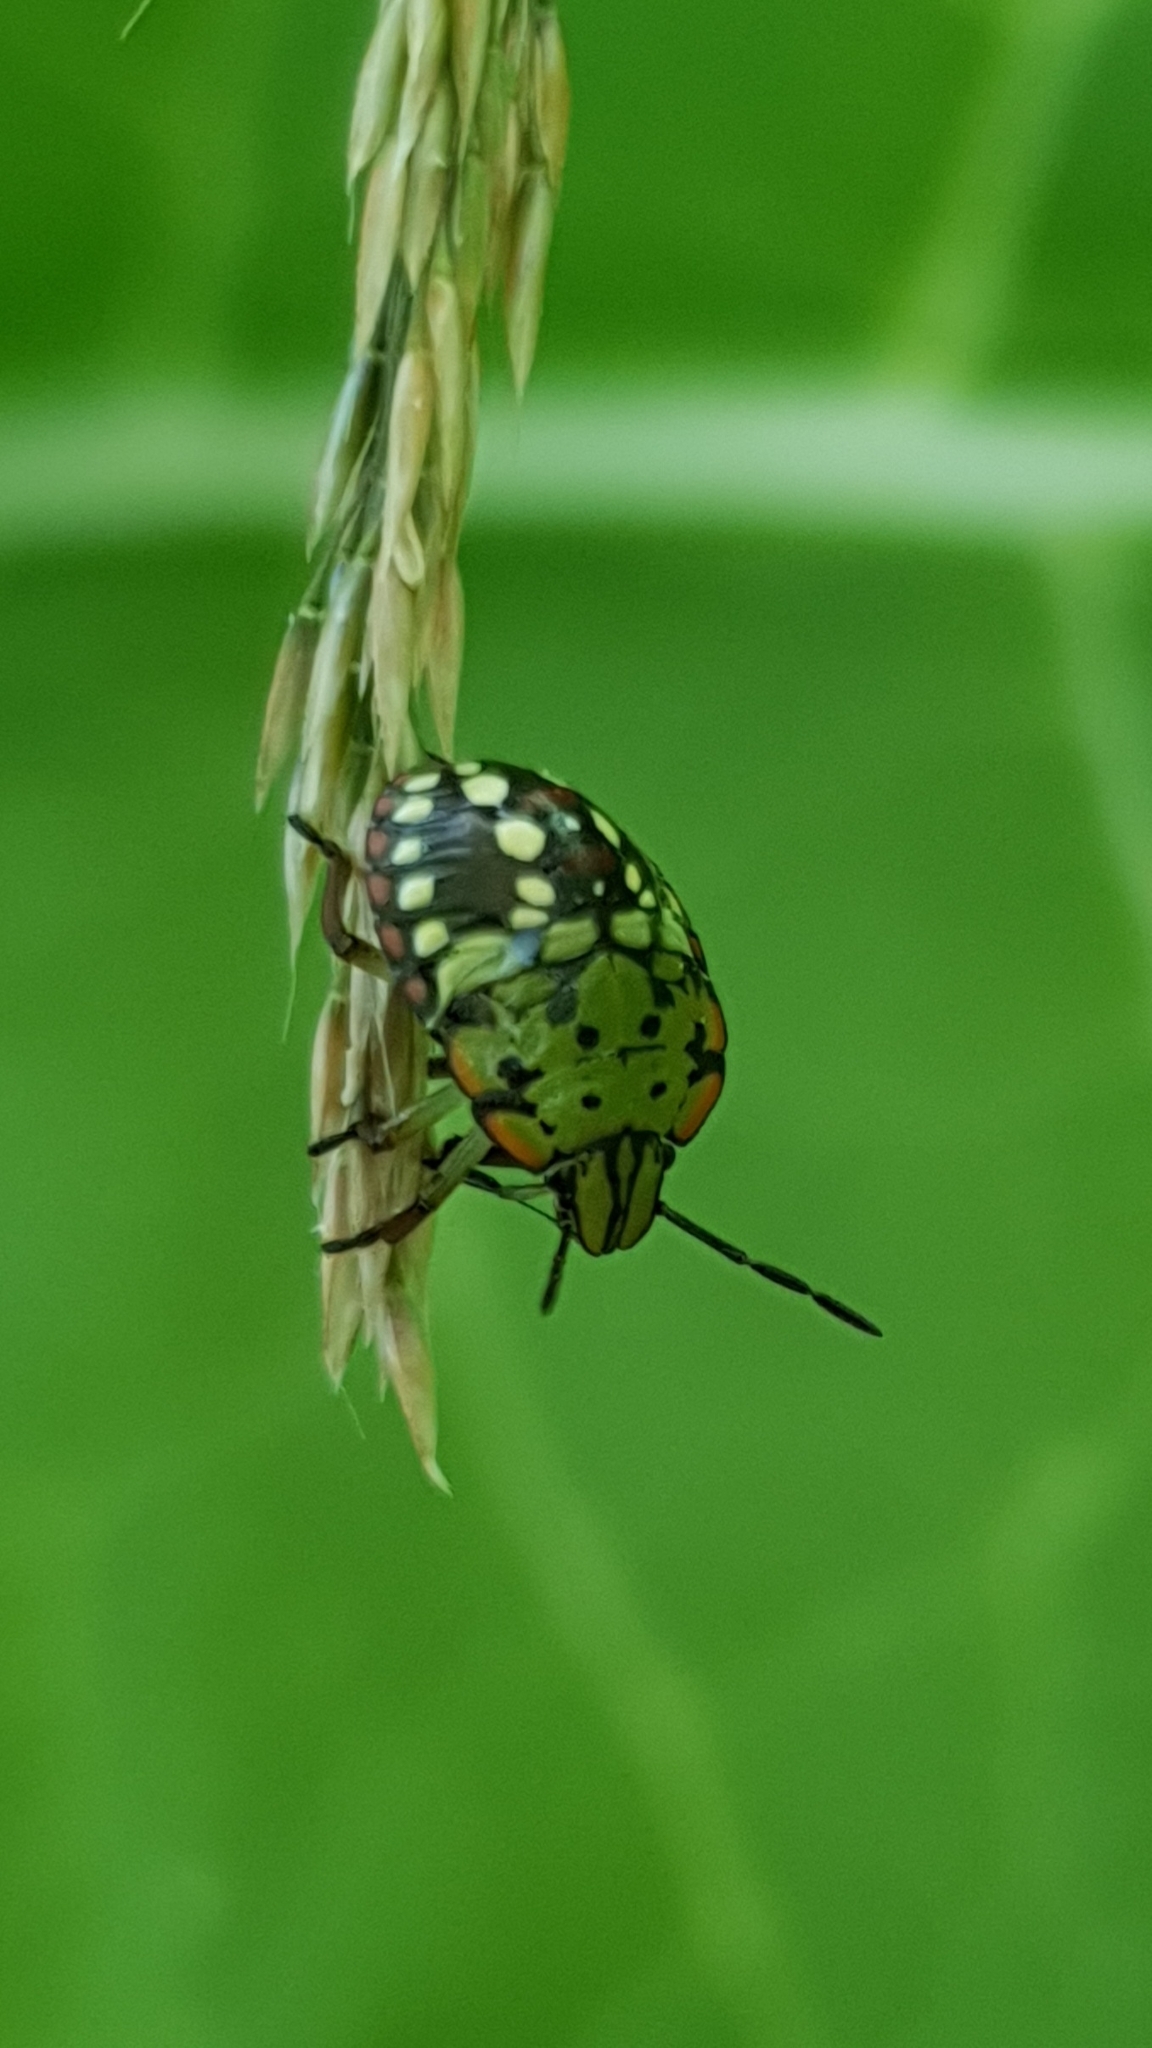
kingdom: Animalia
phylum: Arthropoda
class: Insecta
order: Hemiptera
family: Pentatomidae
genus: Nezara
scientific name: Nezara viridula
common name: Southern green stink bug
